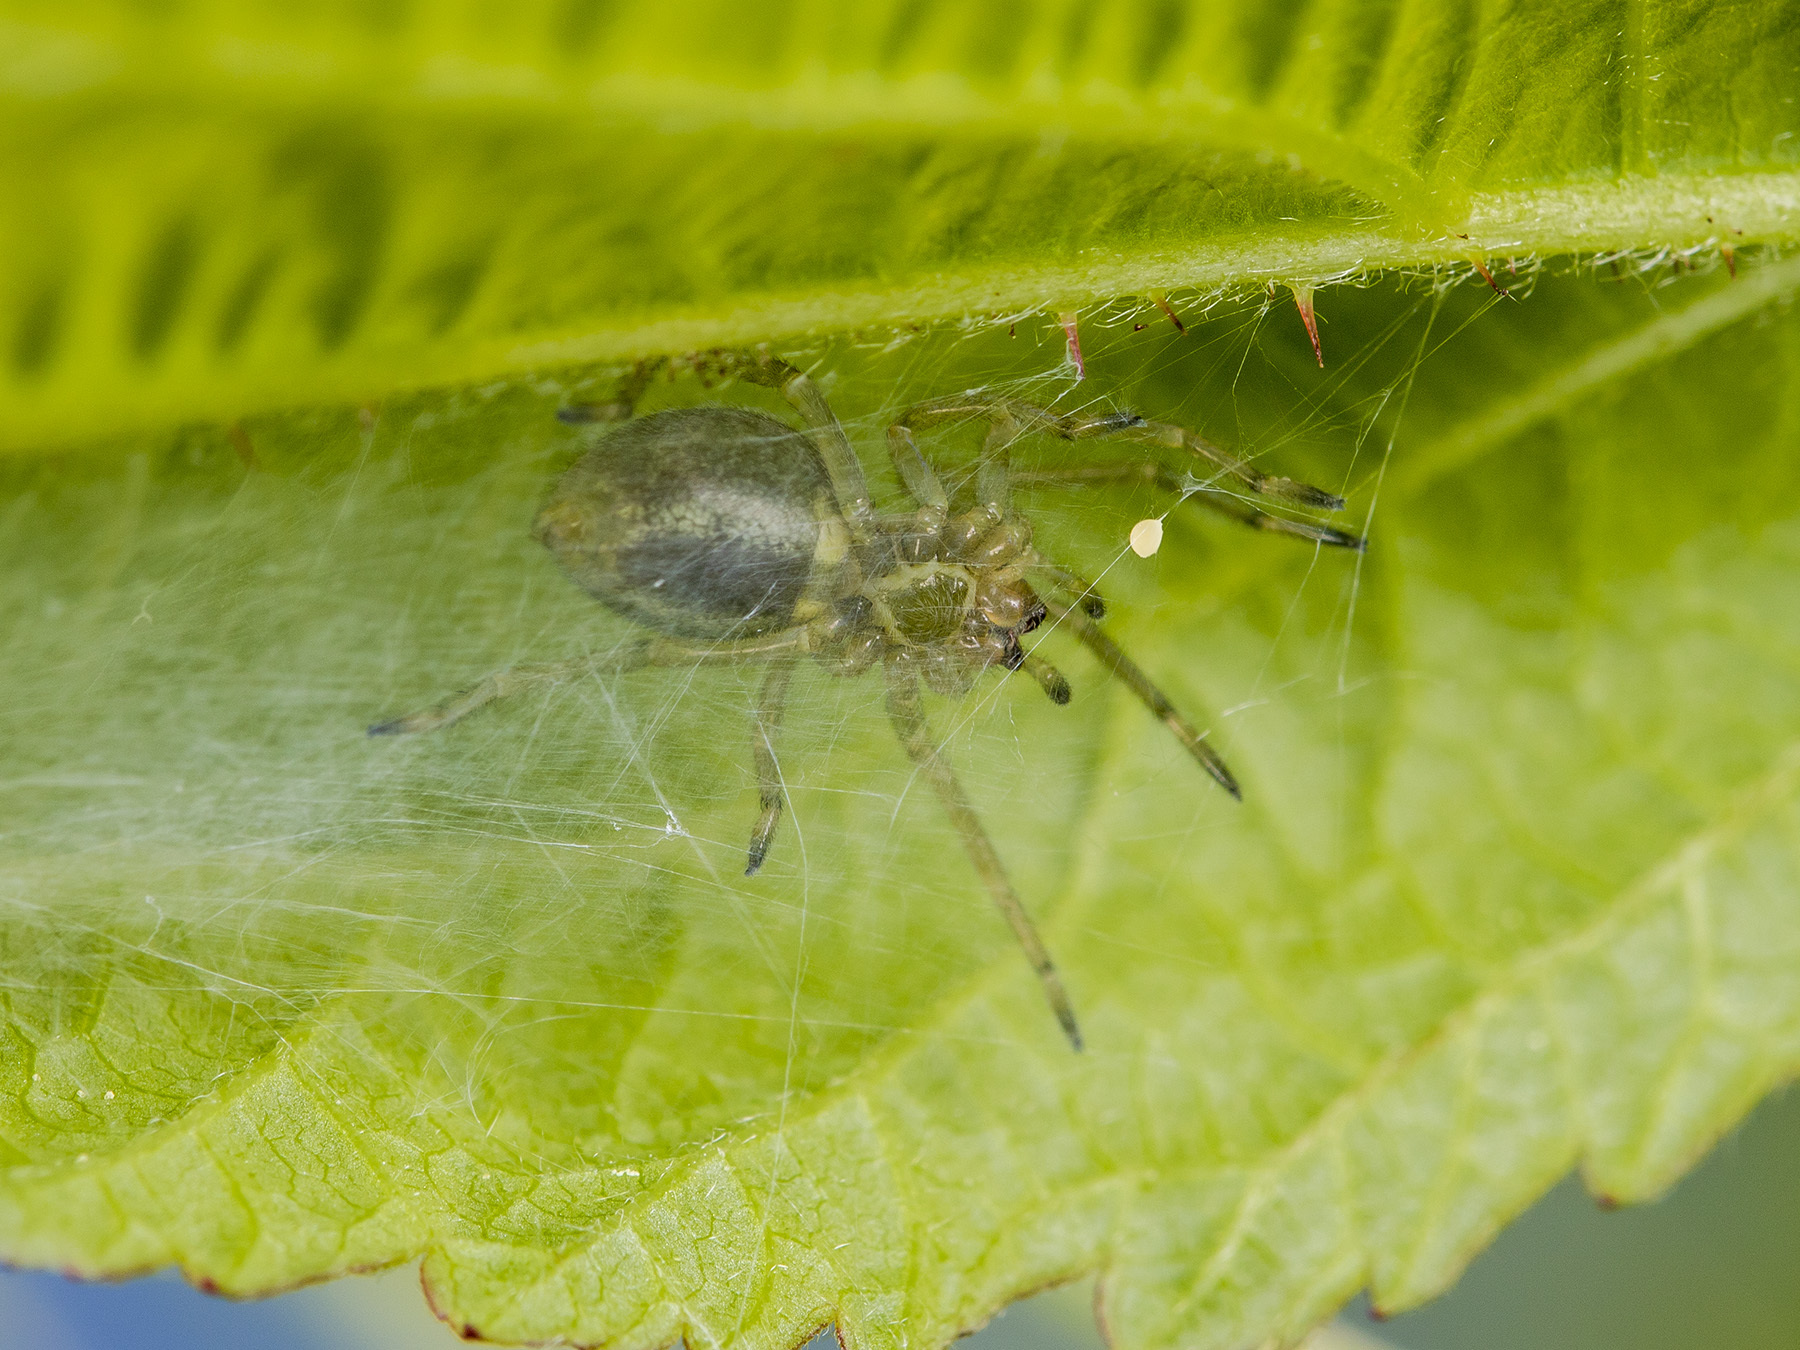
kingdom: Animalia
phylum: Arthropoda
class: Arachnida
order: Araneae
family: Cheiracanthiidae
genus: Cheiracanthium
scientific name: Cheiracanthium erraticum
